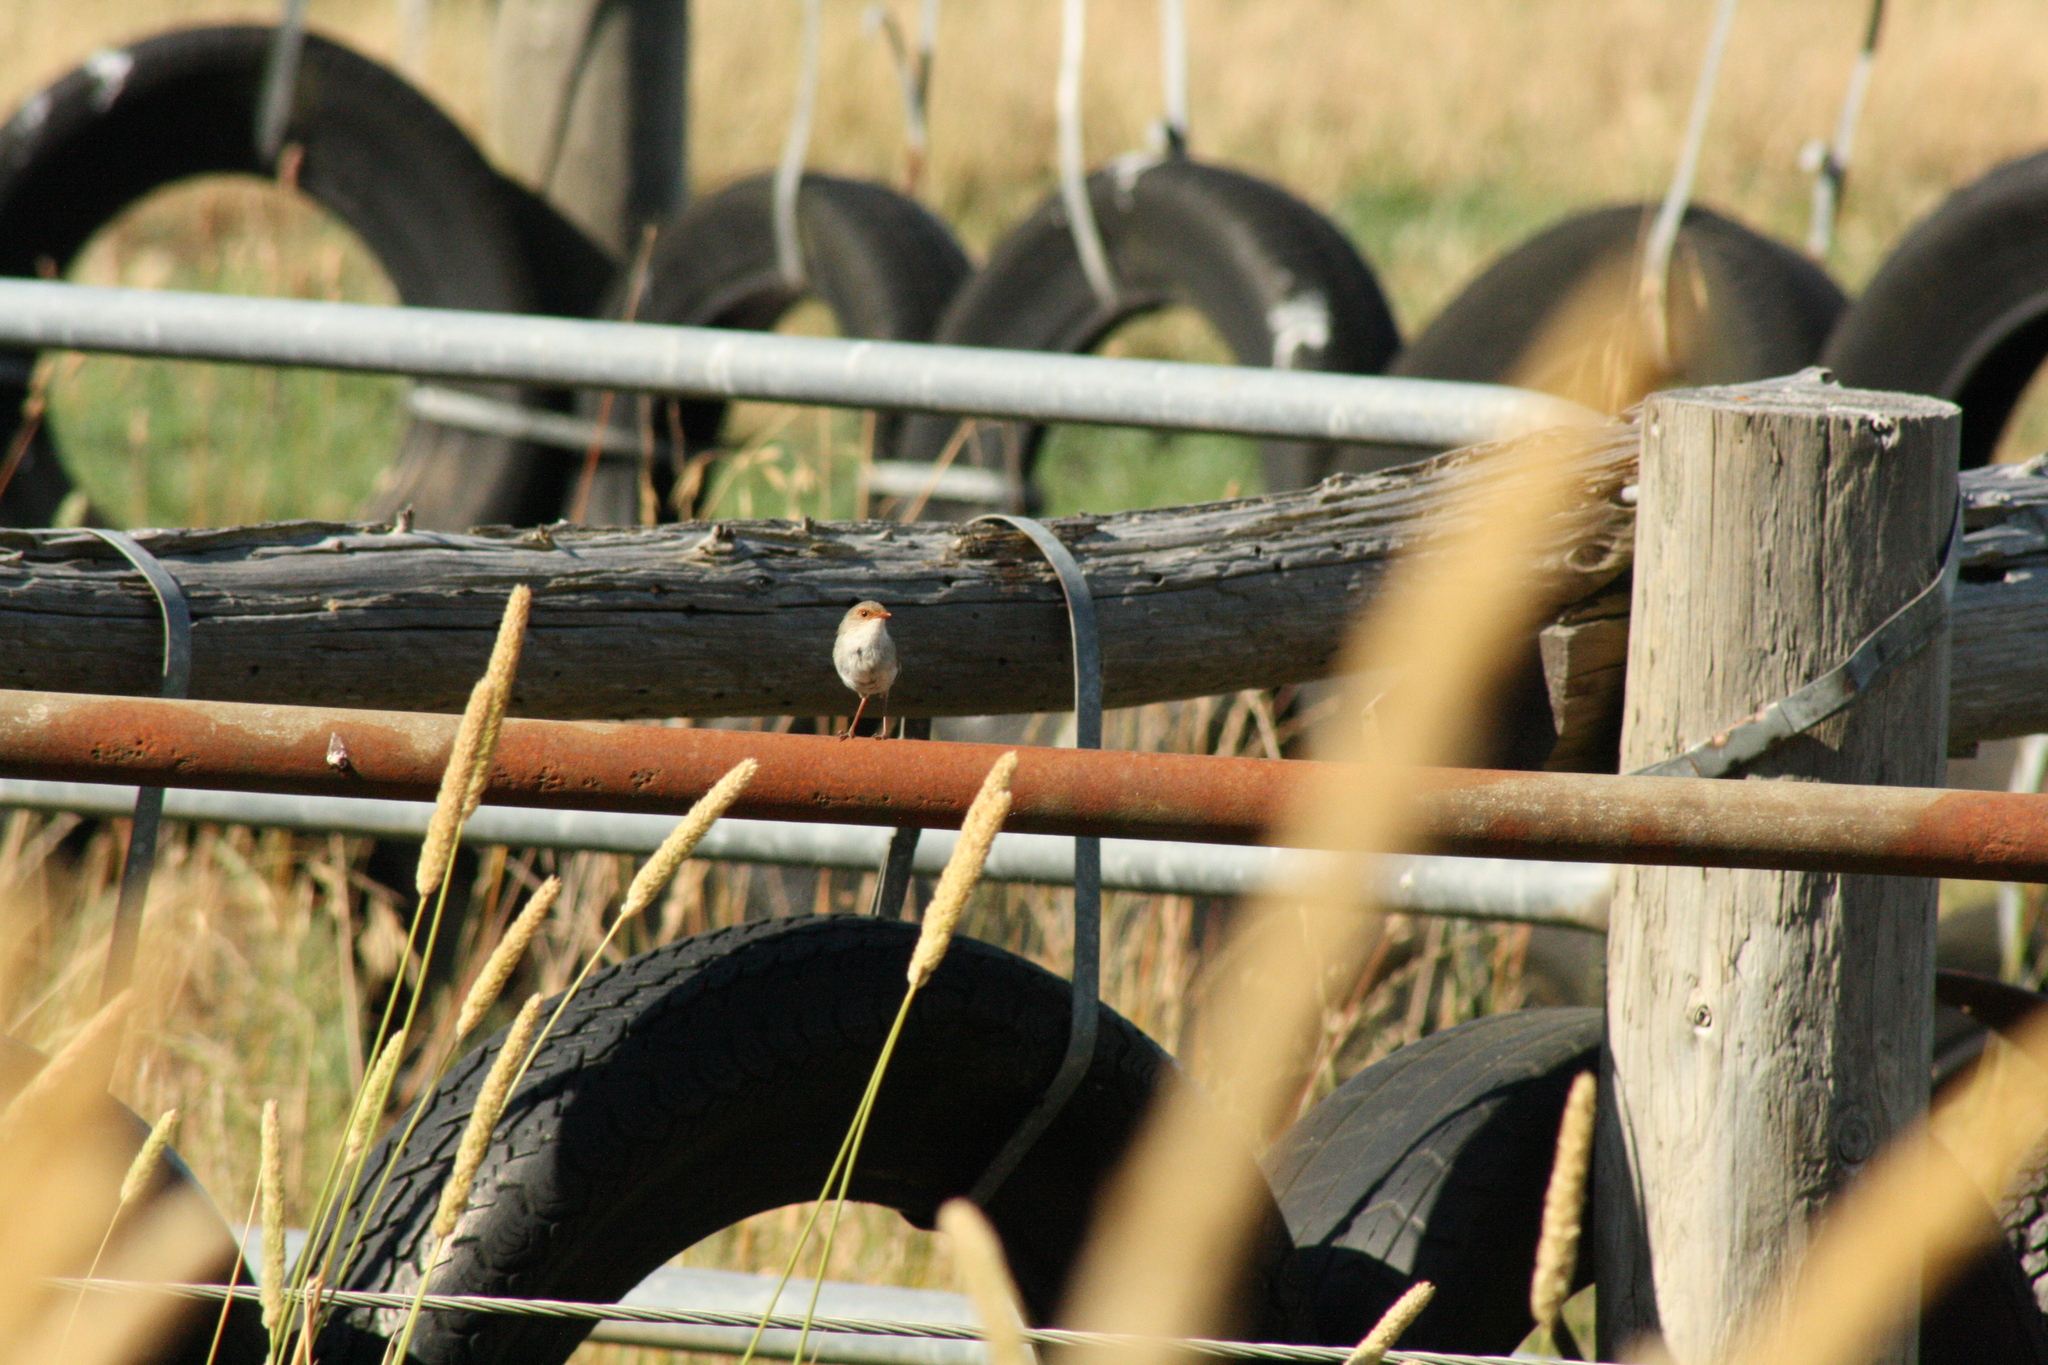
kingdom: Animalia
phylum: Chordata
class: Aves
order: Passeriformes
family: Maluridae
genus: Malurus
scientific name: Malurus cyaneus
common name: Superb fairywren
